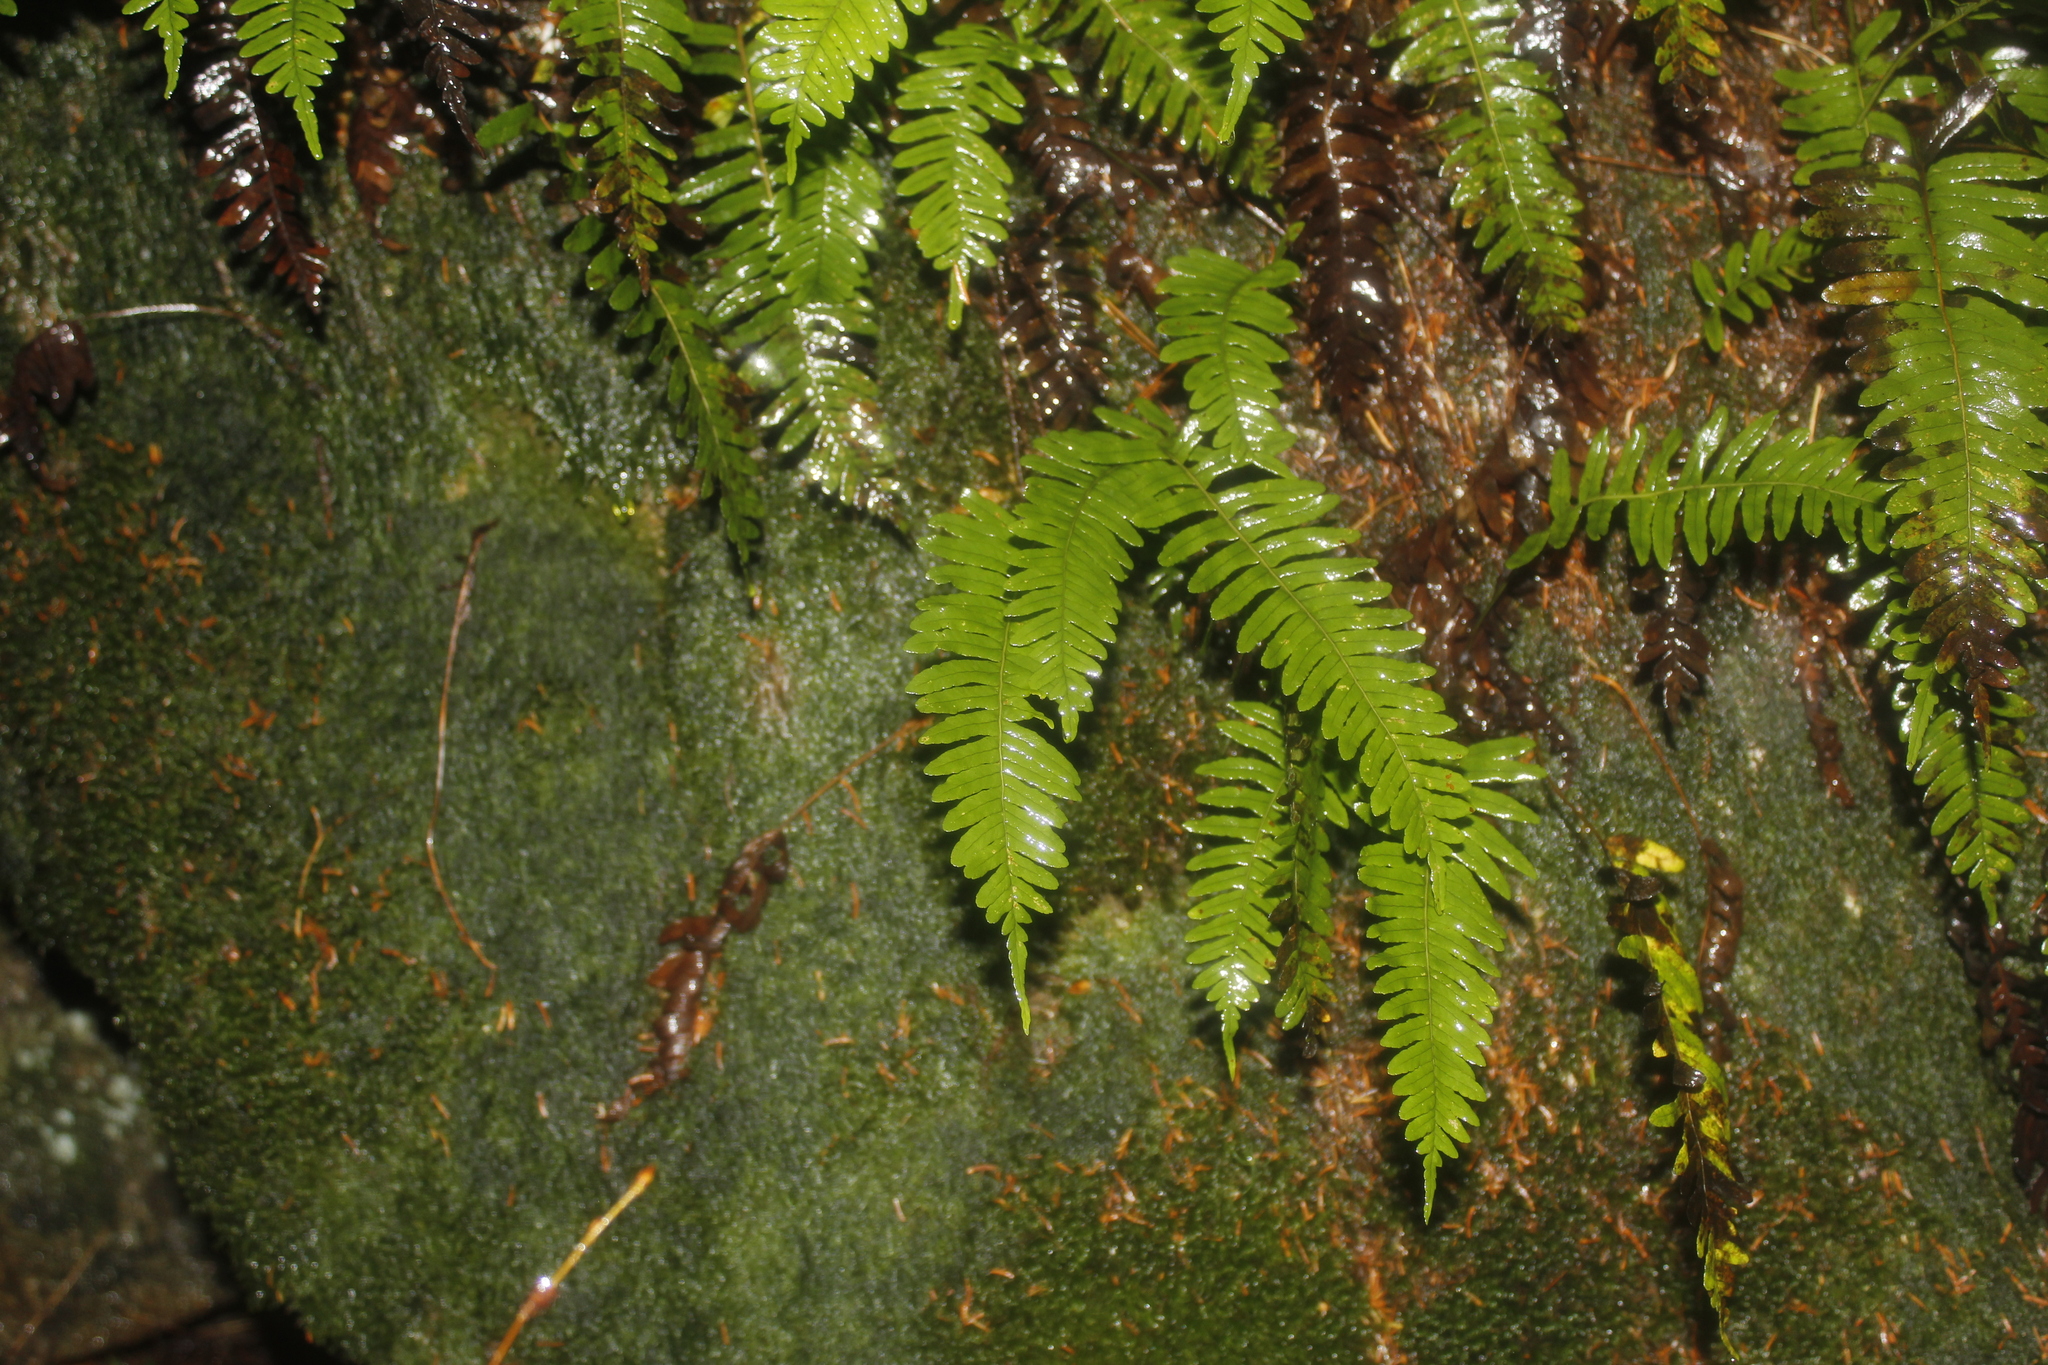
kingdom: Plantae
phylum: Tracheophyta
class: Polypodiopsida
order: Polypodiales
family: Polypodiaceae
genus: Polypodium
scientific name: Polypodium virginianum
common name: American wall fern
